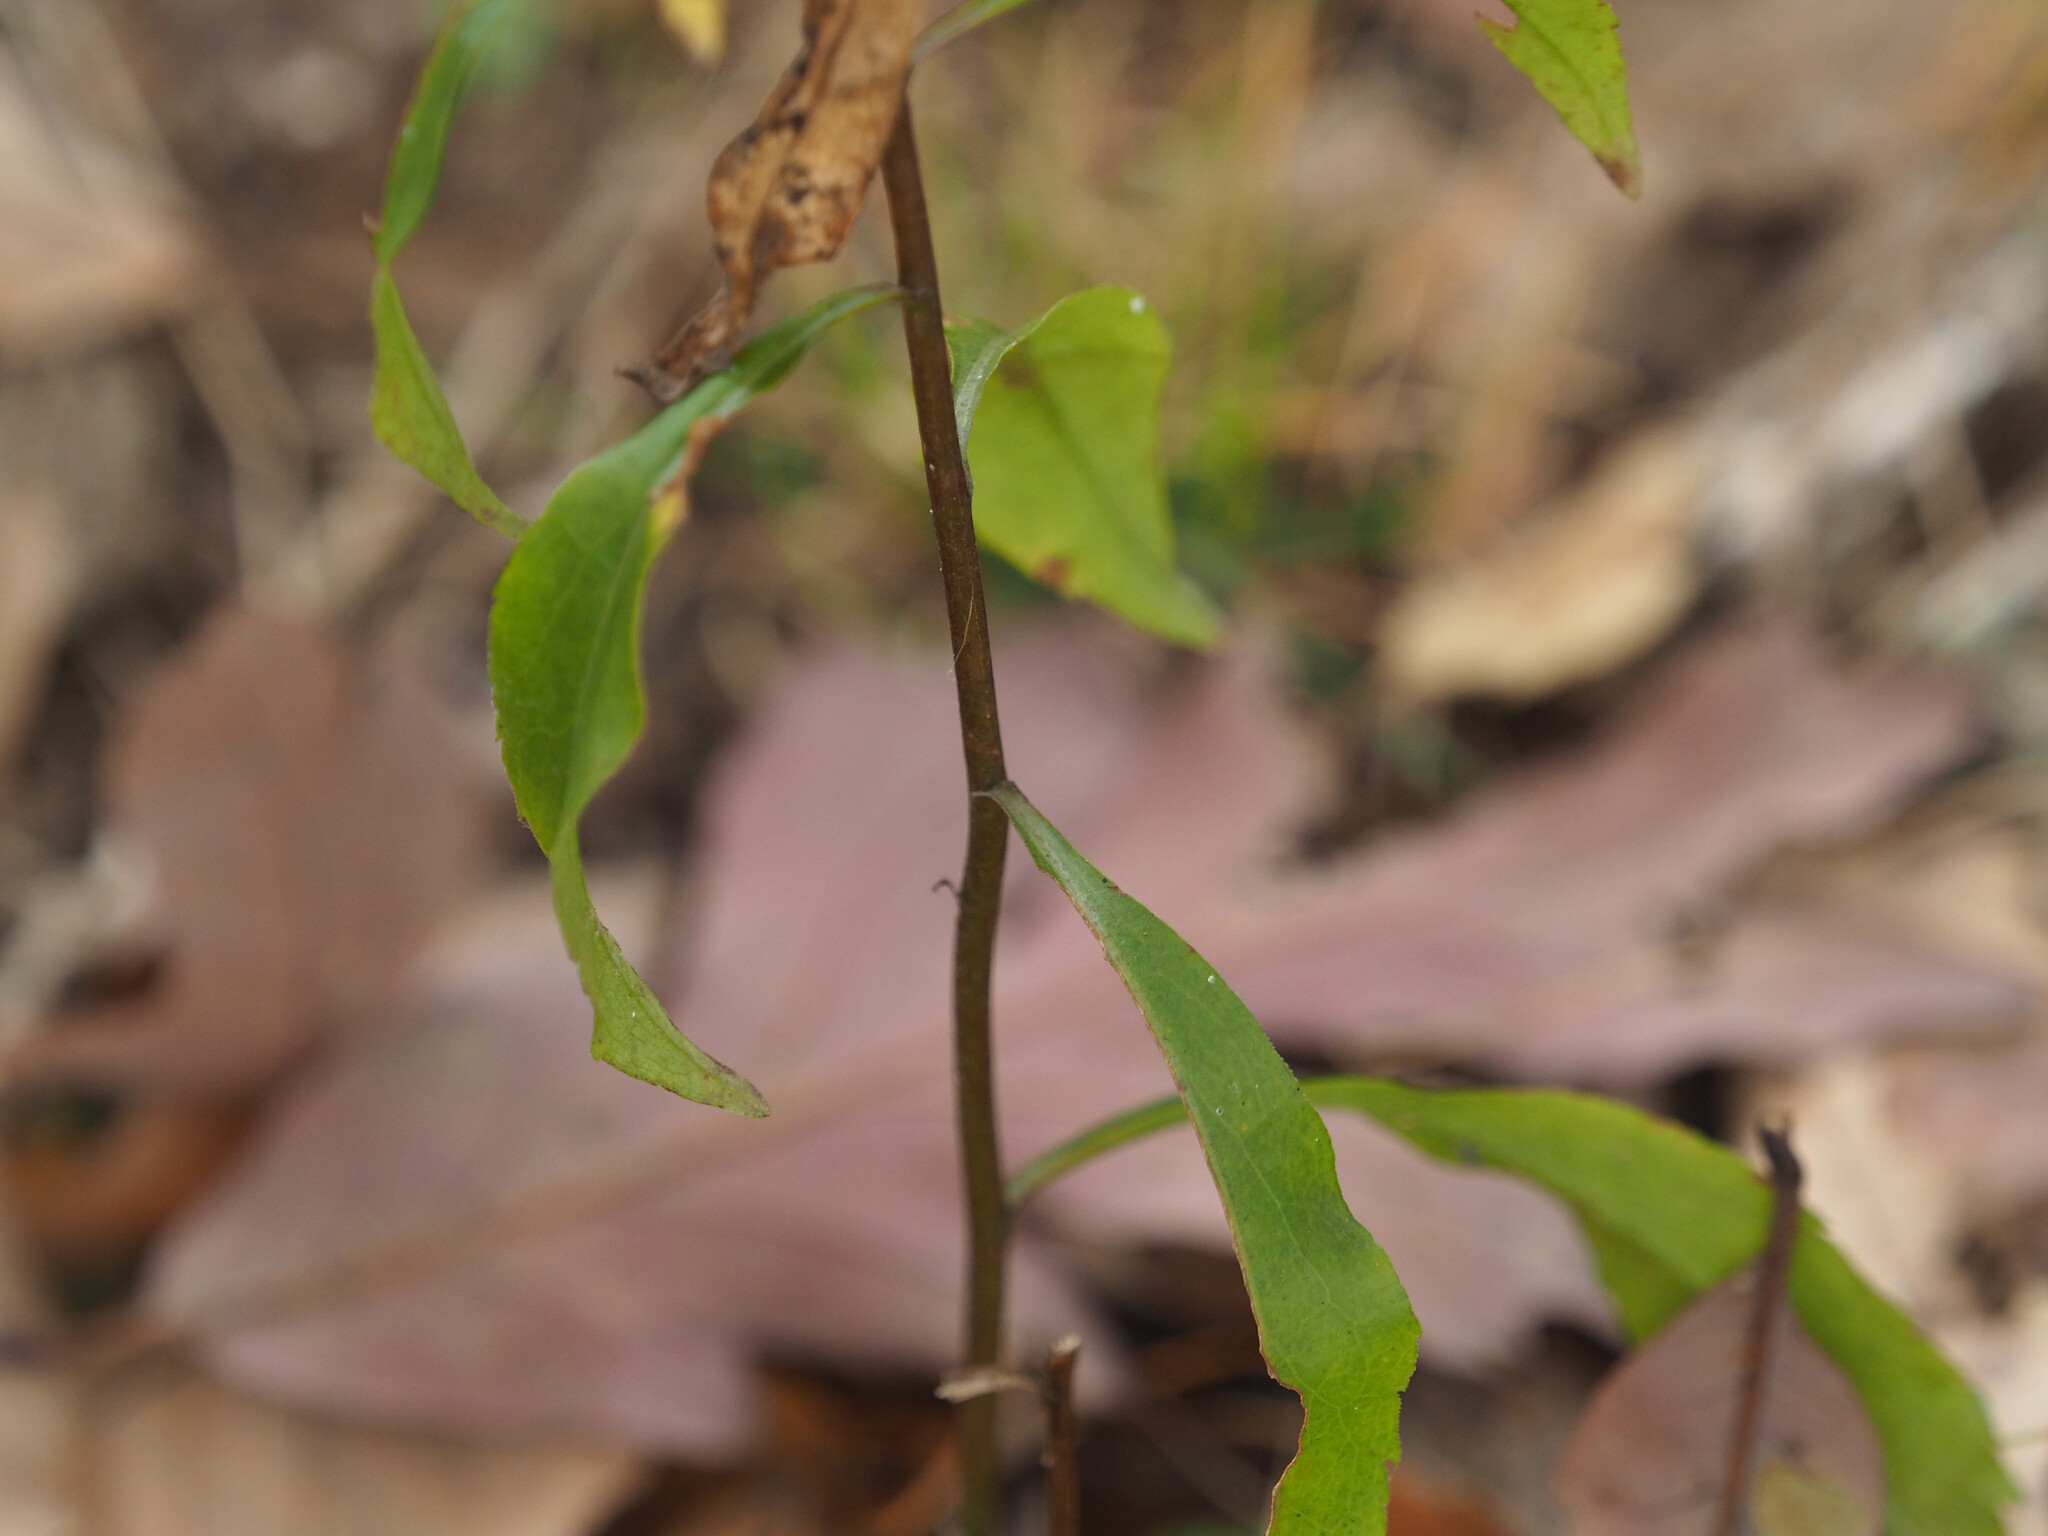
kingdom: Plantae
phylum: Tracheophyta
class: Magnoliopsida
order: Asterales
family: Asteraceae
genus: Solidago
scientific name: Solidago erecta
